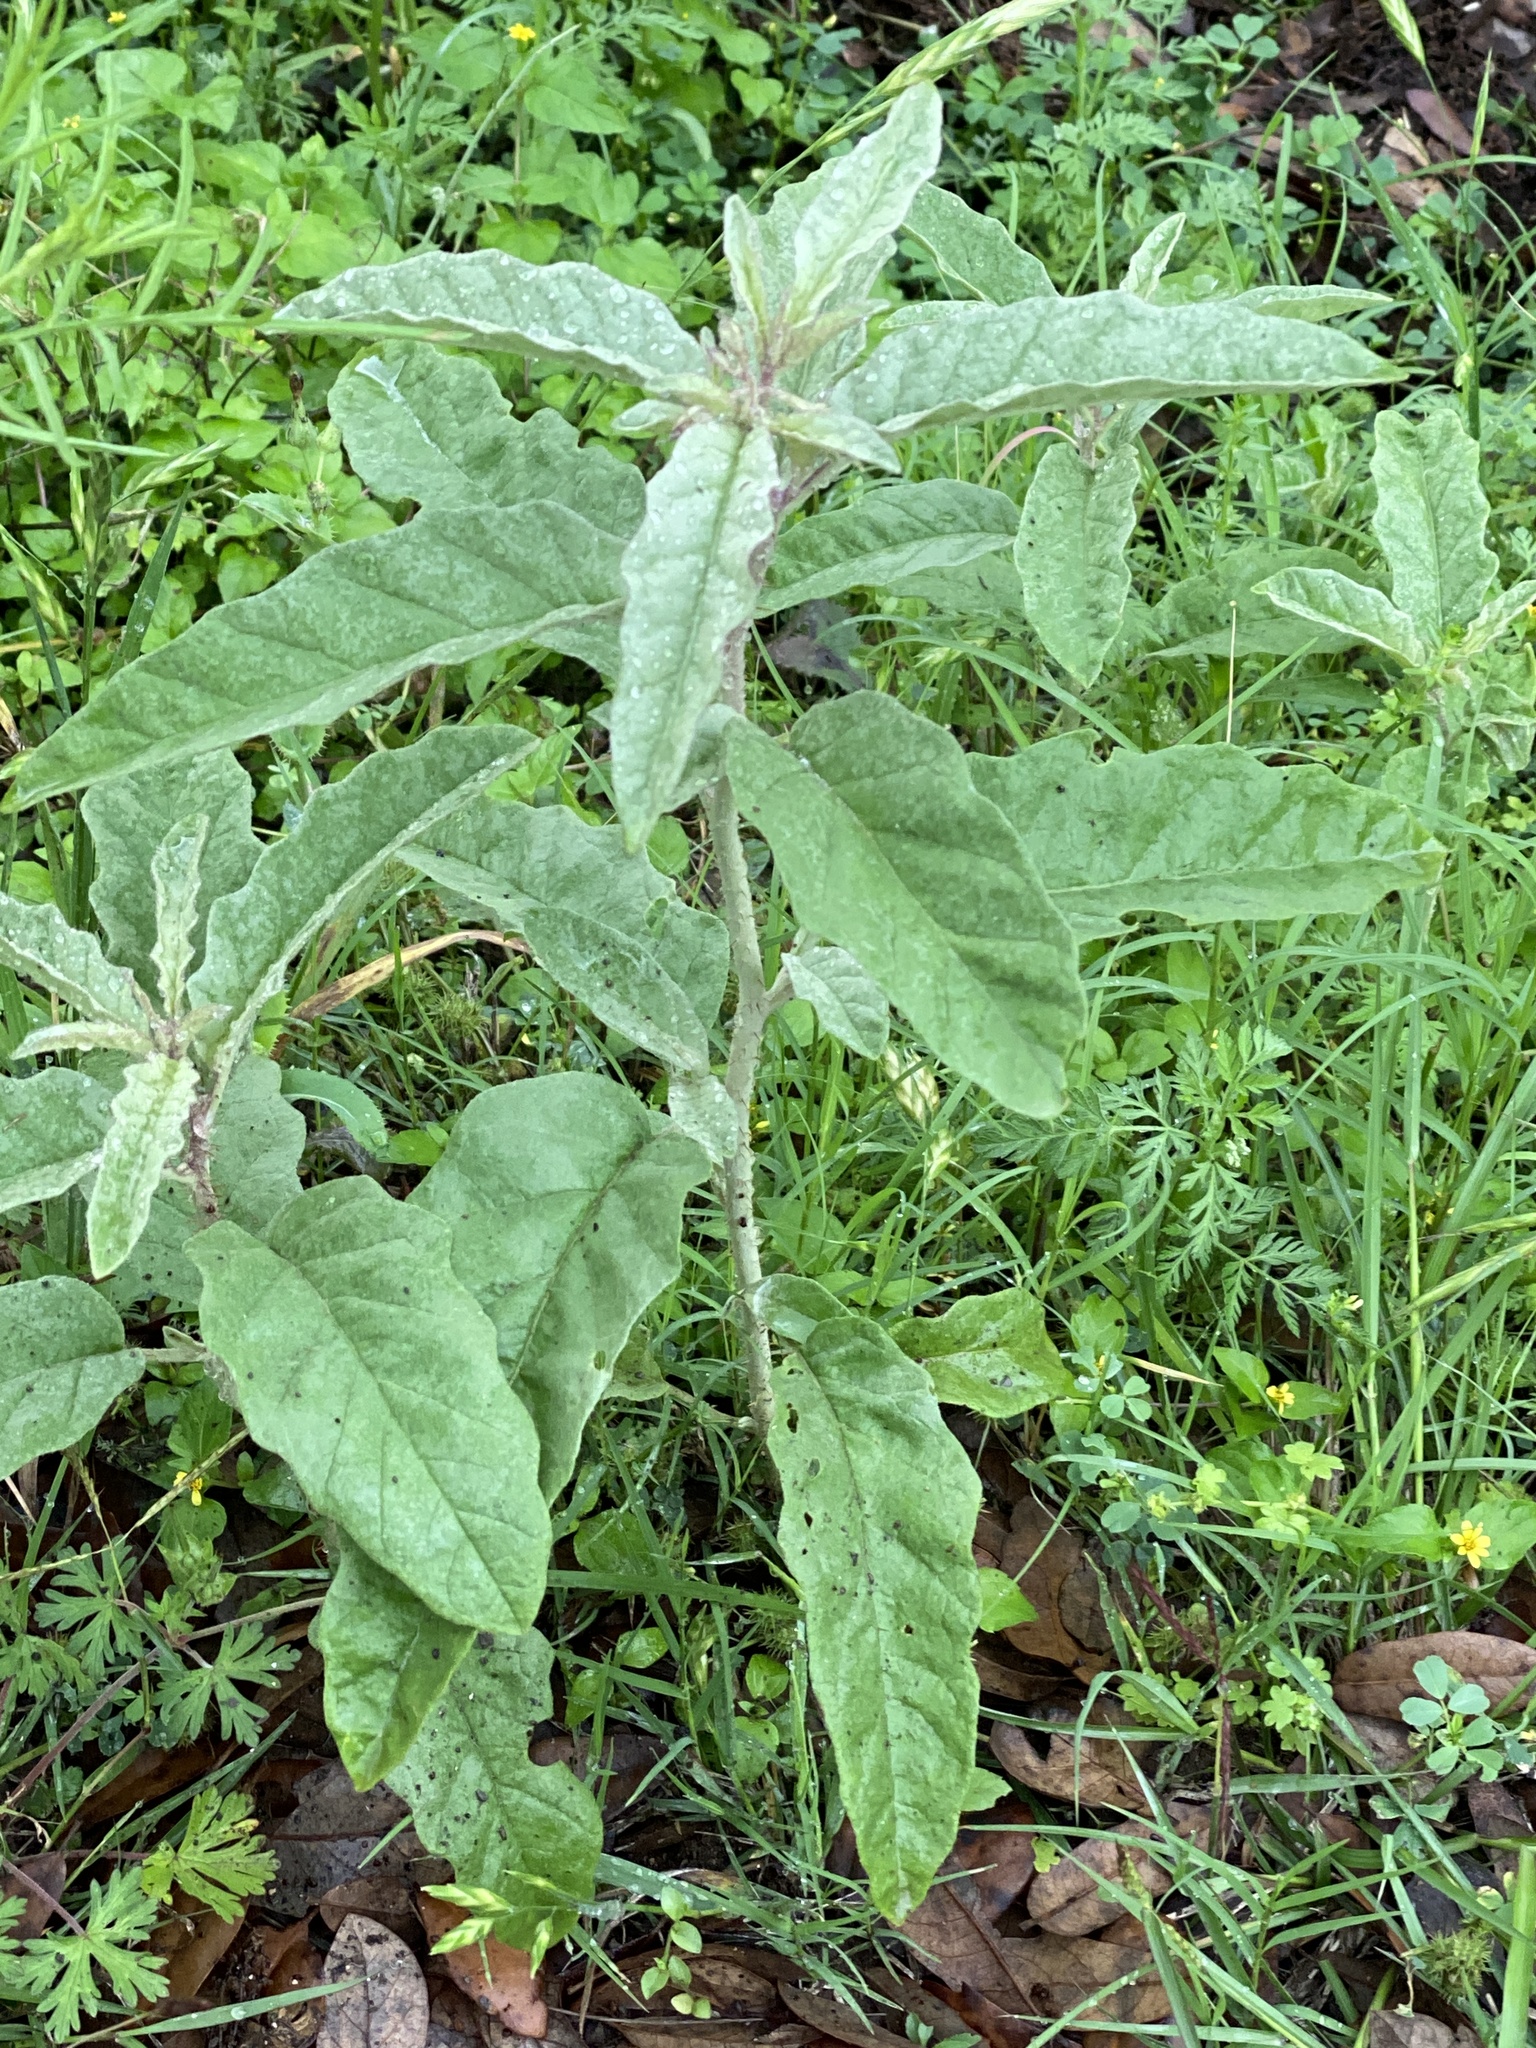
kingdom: Plantae
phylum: Tracheophyta
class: Magnoliopsida
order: Solanales
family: Solanaceae
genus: Solanum
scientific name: Solanum elaeagnifolium
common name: Silverleaf nightshade
